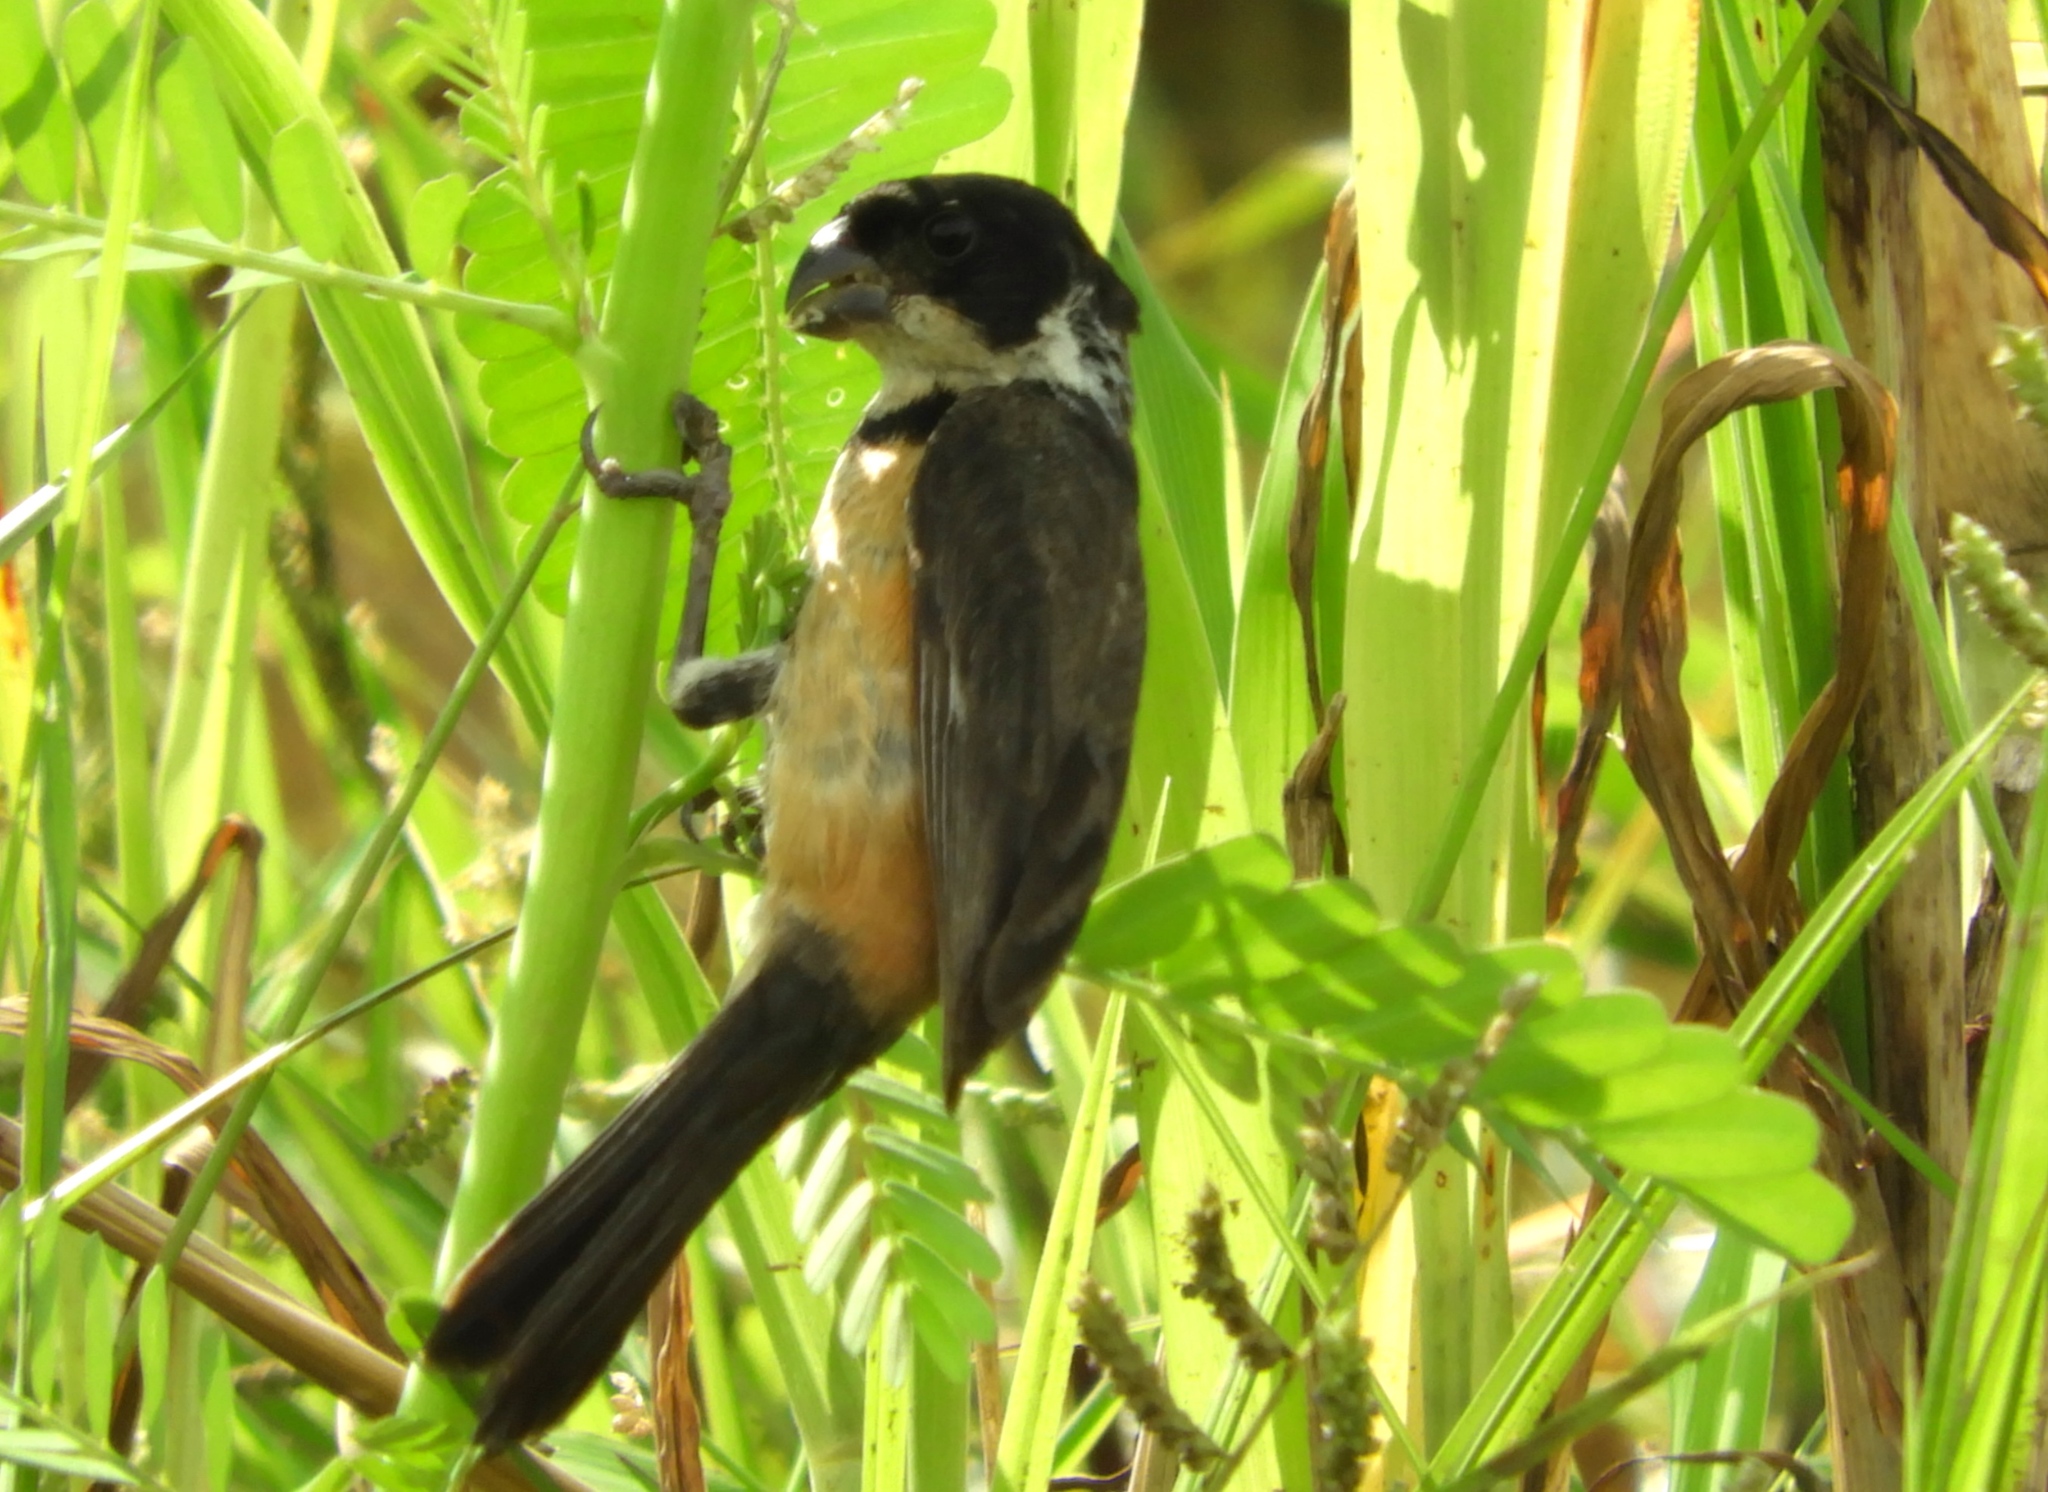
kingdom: Animalia
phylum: Chordata
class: Aves
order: Passeriformes
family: Thraupidae
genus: Sporophila
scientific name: Sporophila torqueola
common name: White-collared seedeater
